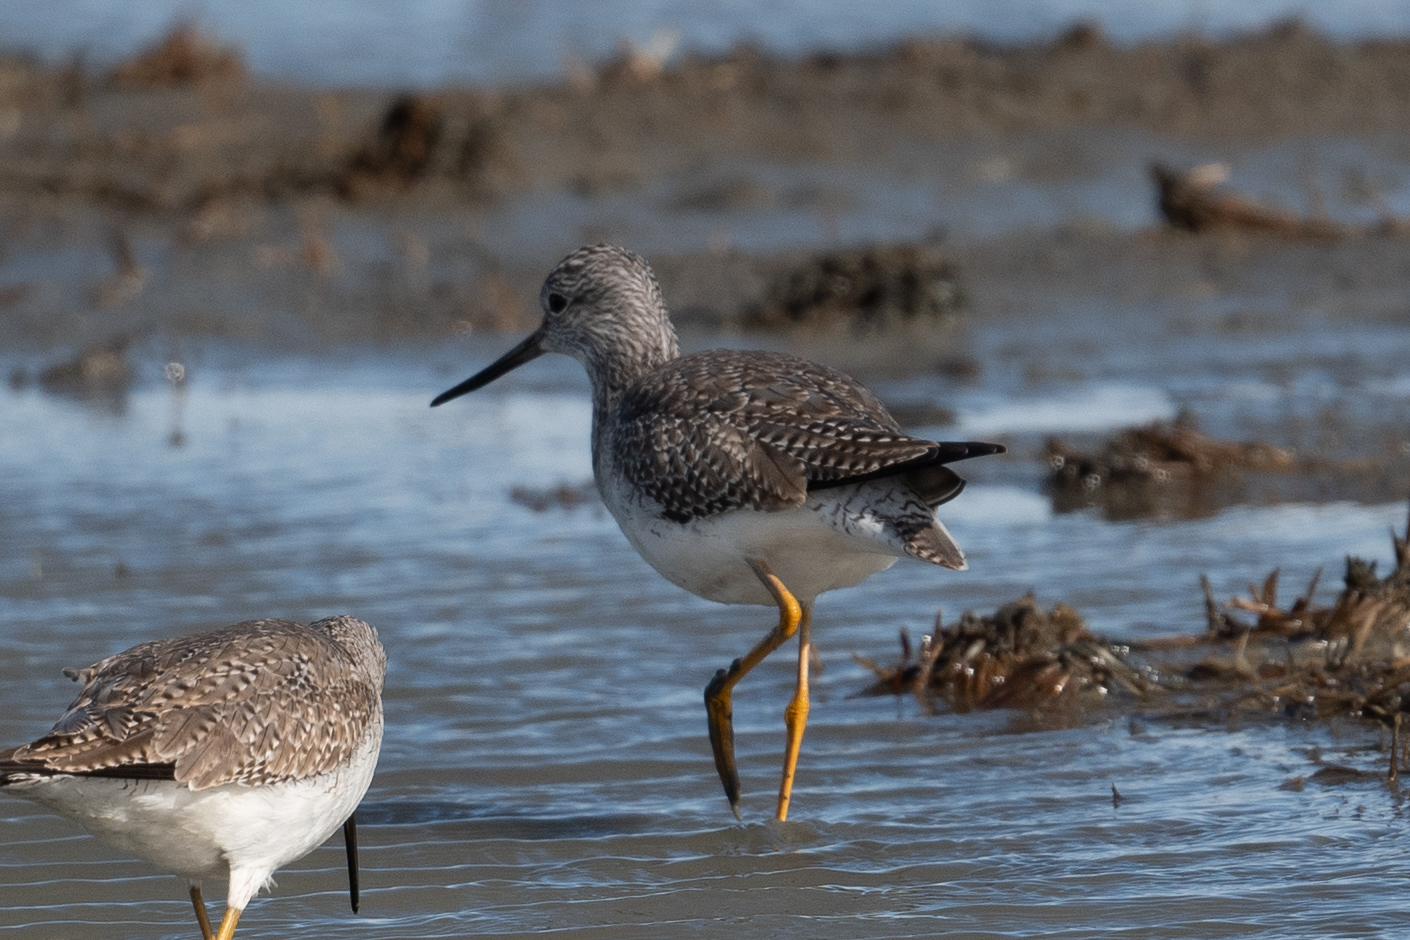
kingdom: Animalia
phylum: Chordata
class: Aves
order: Charadriiformes
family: Scolopacidae
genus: Tringa
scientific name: Tringa melanoleuca
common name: Greater yellowlegs
